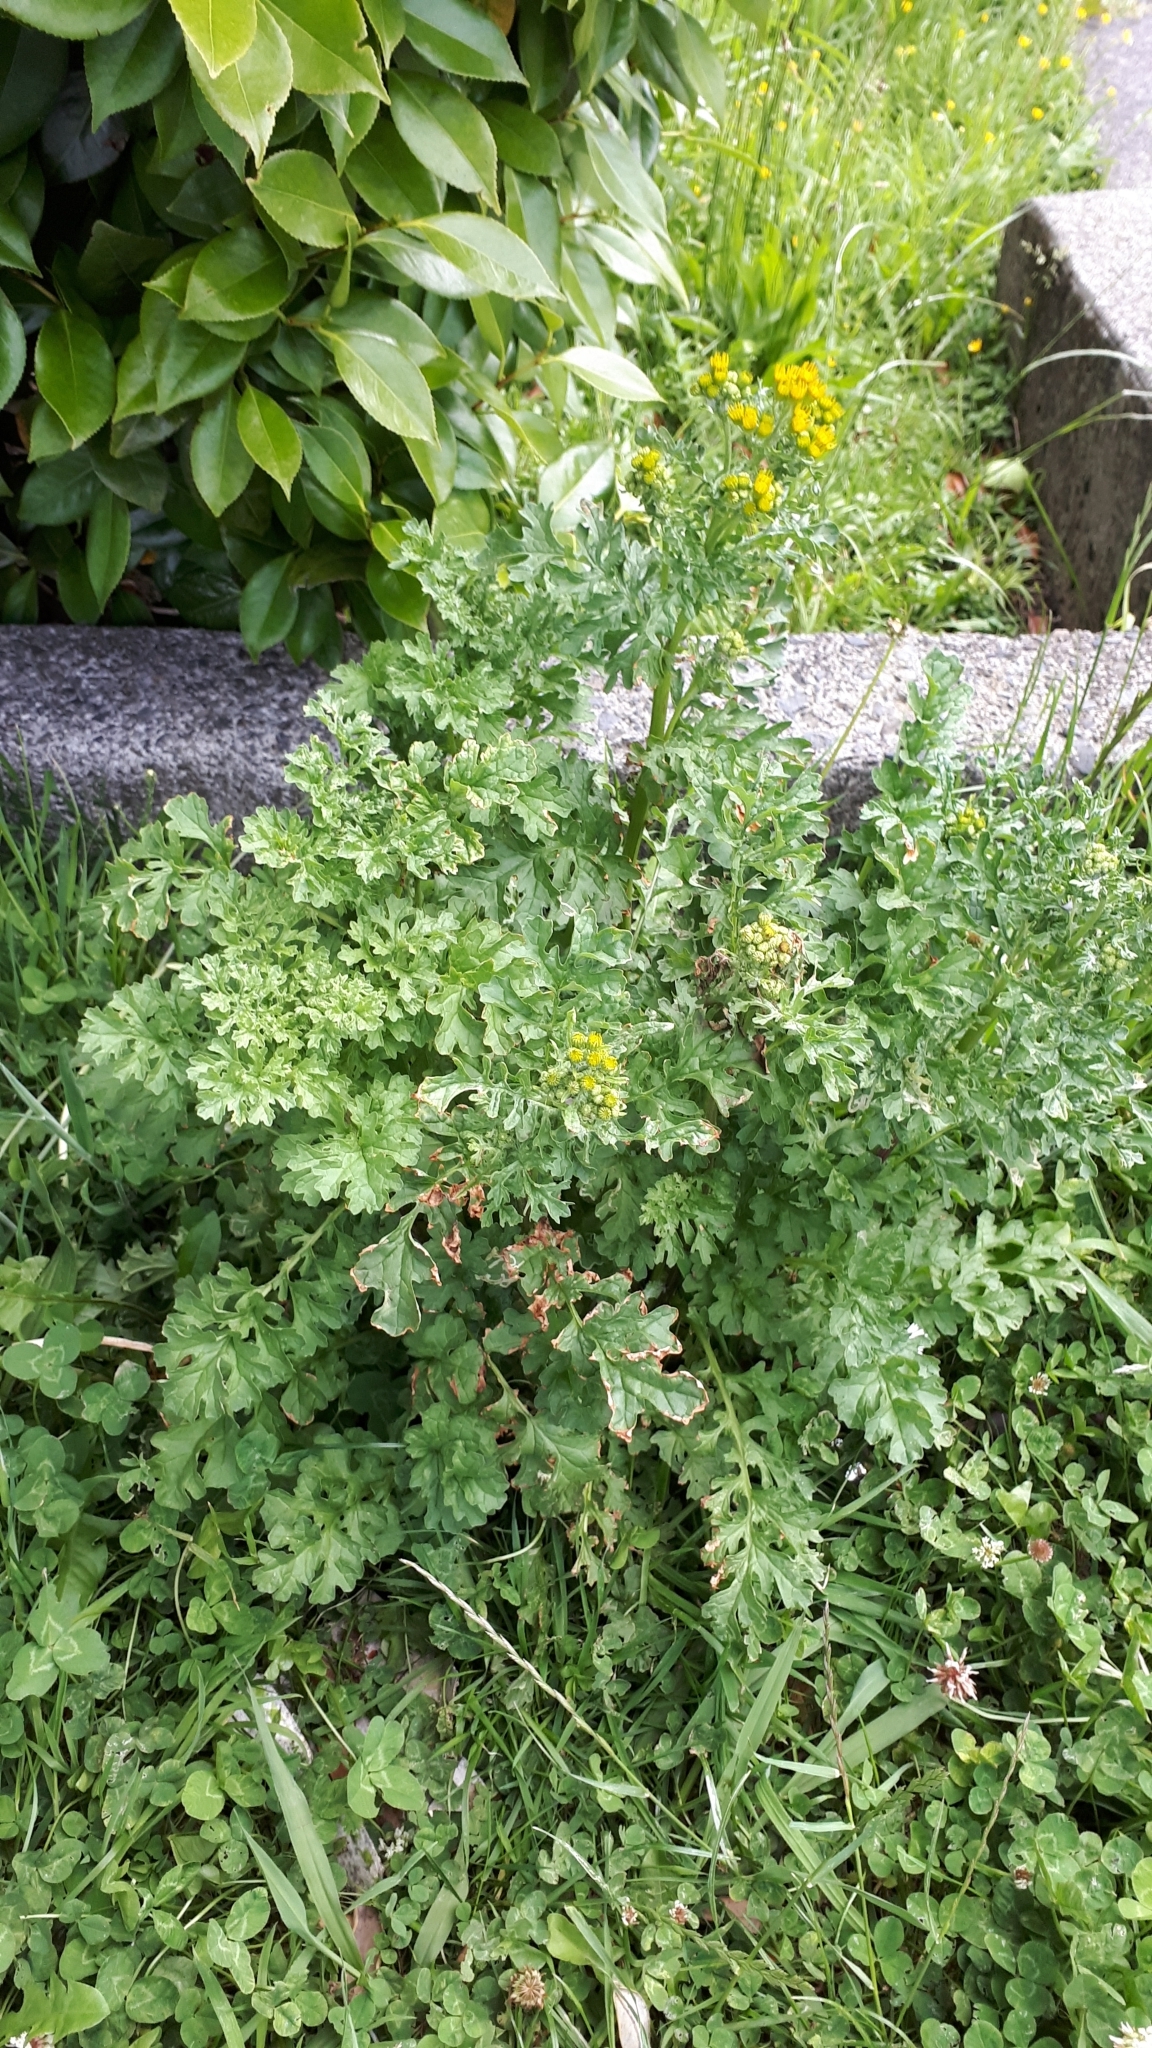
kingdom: Plantae
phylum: Tracheophyta
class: Magnoliopsida
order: Asterales
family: Asteraceae
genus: Jacobaea
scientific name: Jacobaea vulgaris
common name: Stinking willie
